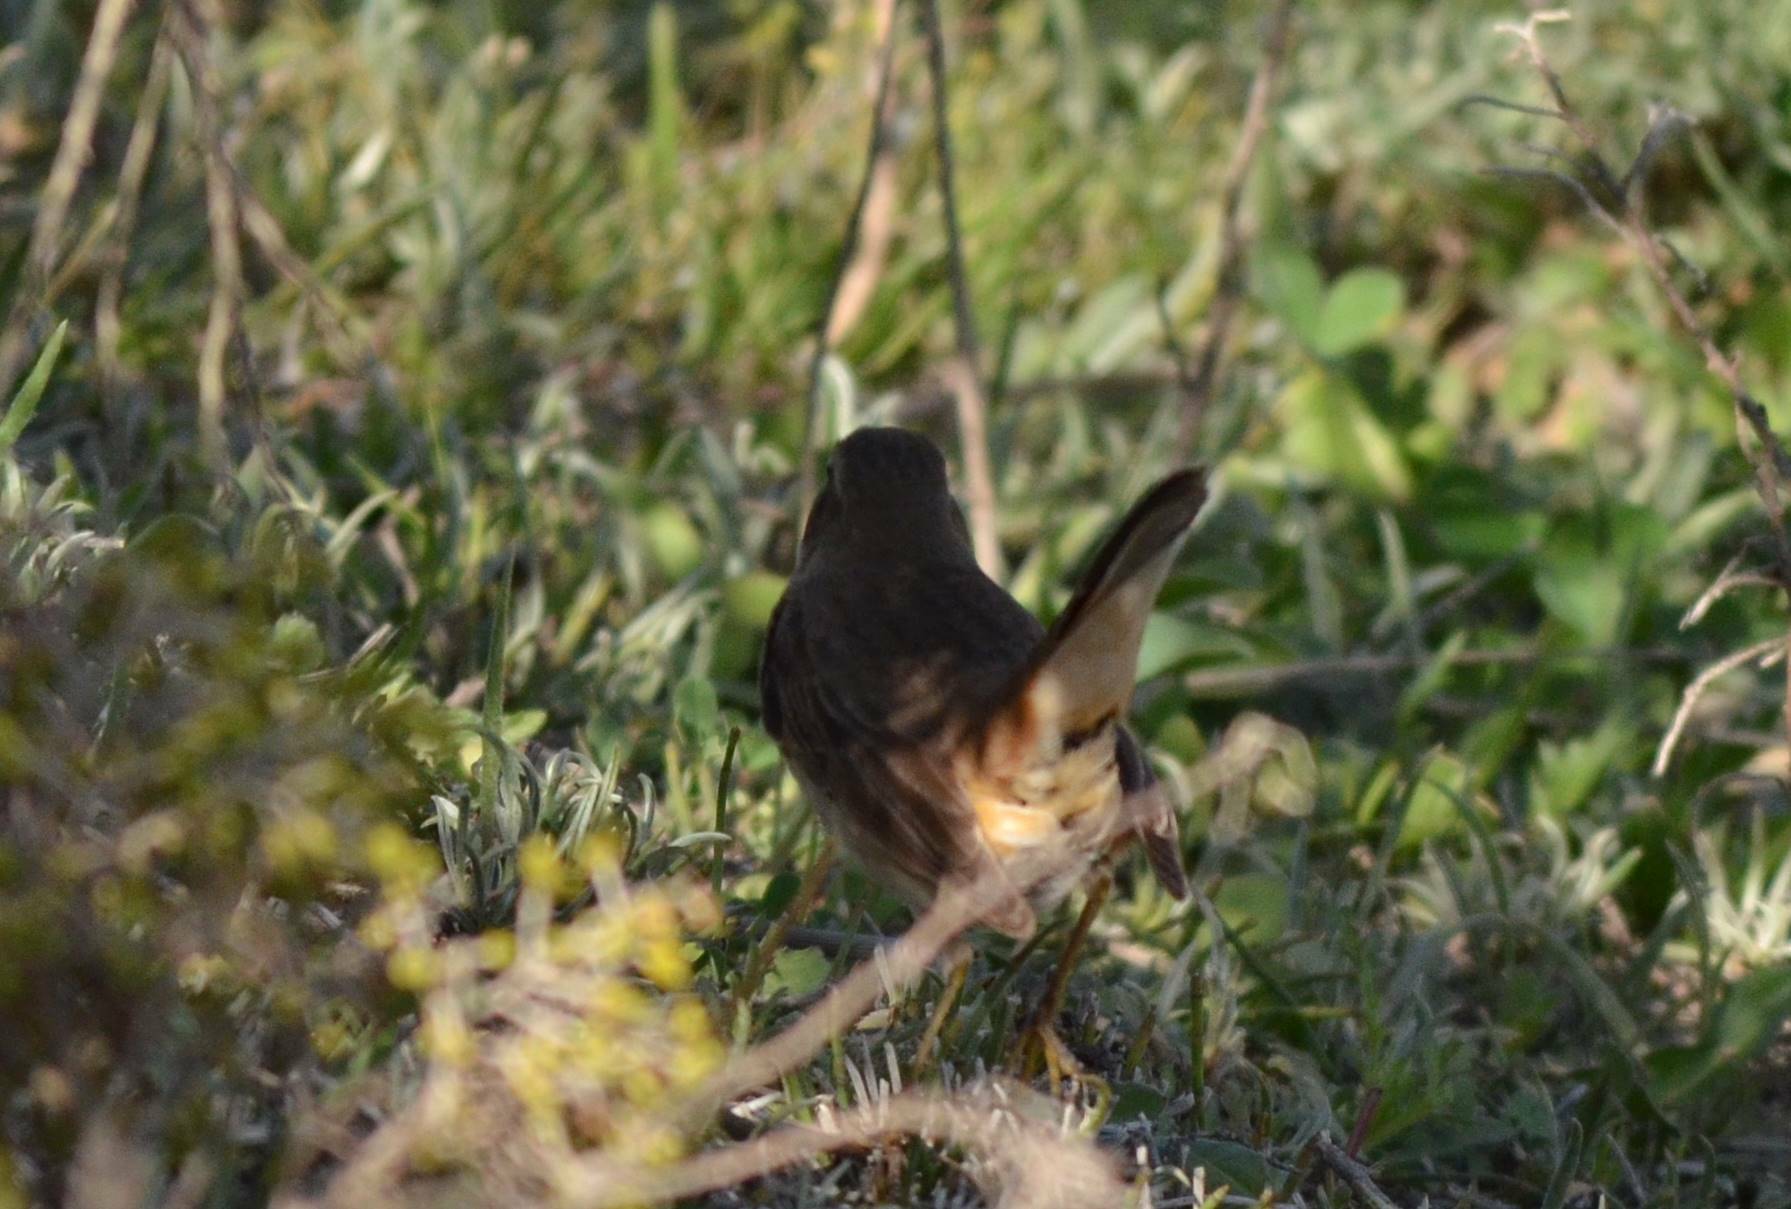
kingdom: Animalia
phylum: Chordata
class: Aves
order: Passeriformes
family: Muscicapidae
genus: Luscinia
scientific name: Luscinia svecica
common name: Bluethroat
